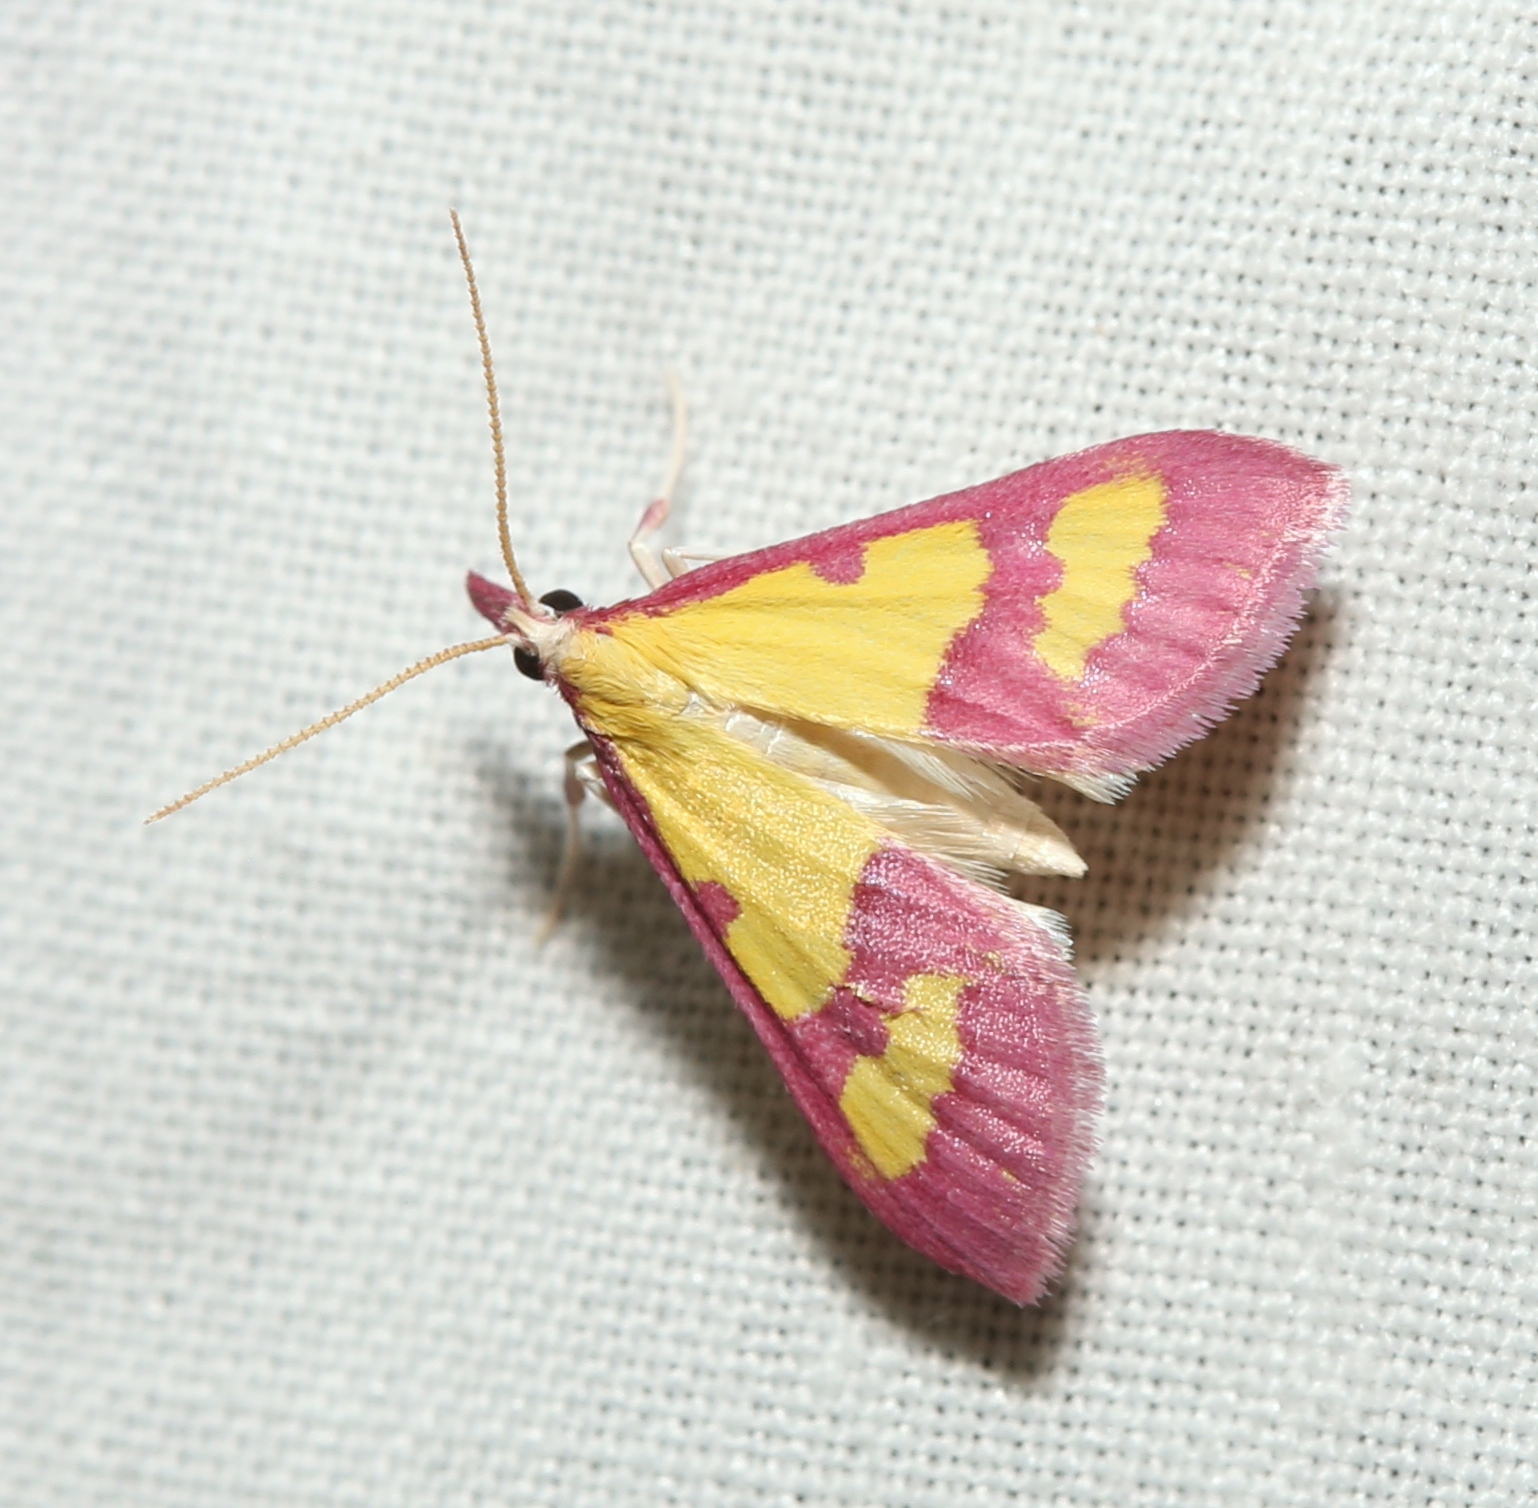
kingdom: Animalia
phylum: Arthropoda
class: Insecta
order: Lepidoptera
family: Crambidae
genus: Choristostigma
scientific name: Choristostigma roseopennalis
